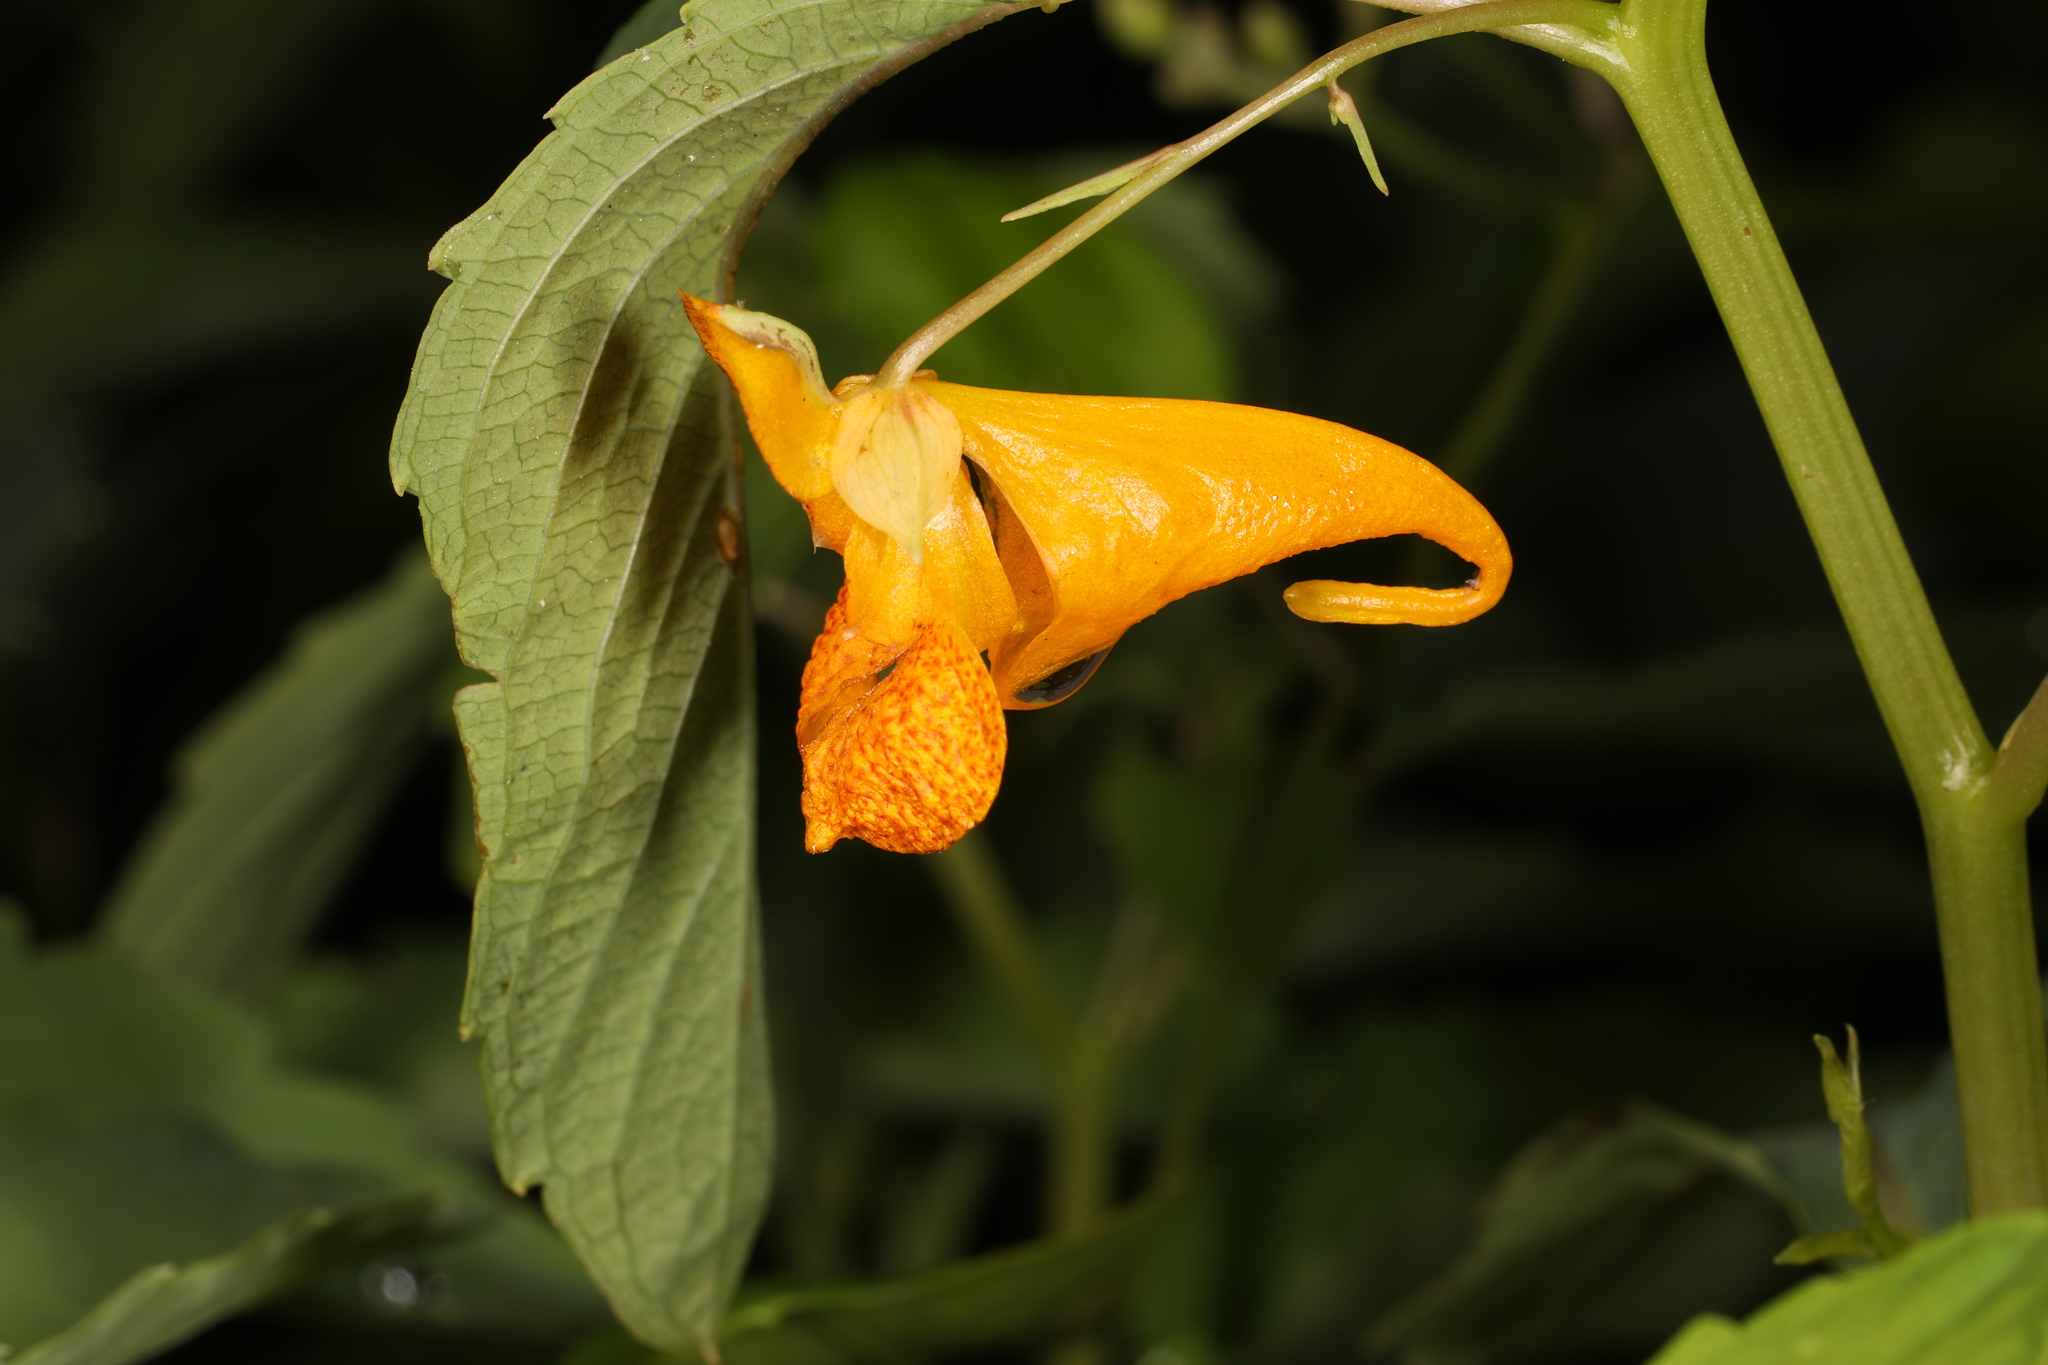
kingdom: Plantae
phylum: Tracheophyta
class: Magnoliopsida
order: Ericales
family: Balsaminaceae
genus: Impatiens
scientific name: Impatiens capensis
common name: Orange balsam
